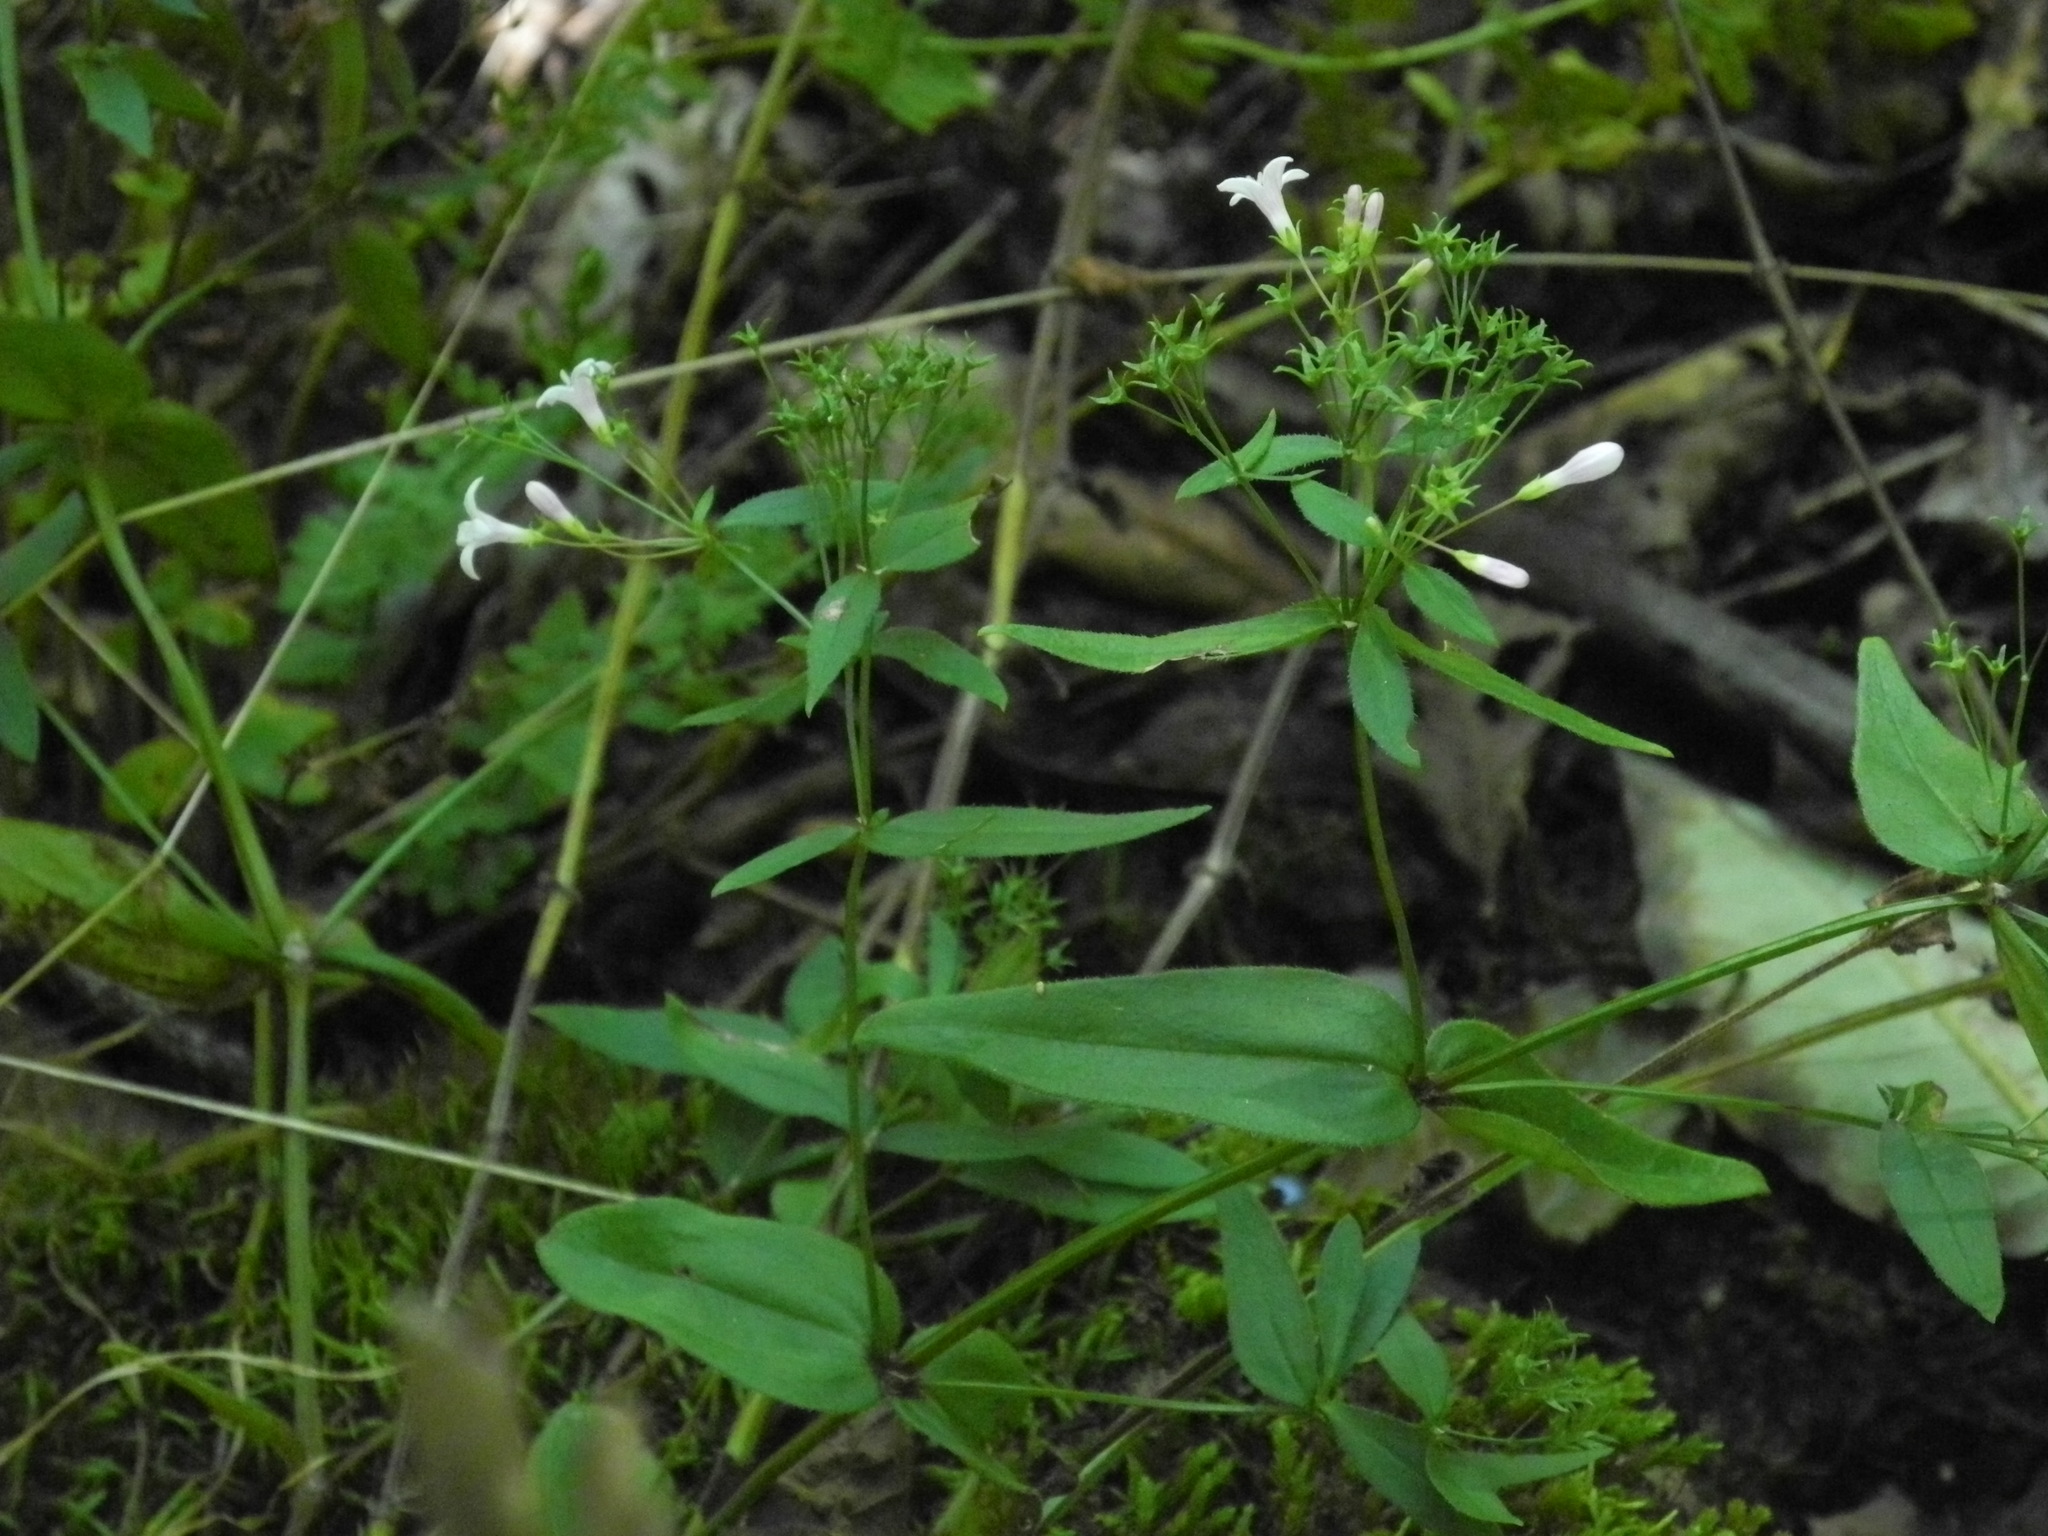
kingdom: Plantae
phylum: Tracheophyta
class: Magnoliopsida
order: Gentianales
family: Rubiaceae
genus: Houstonia
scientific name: Houstonia purpurea
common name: Summer bluet
